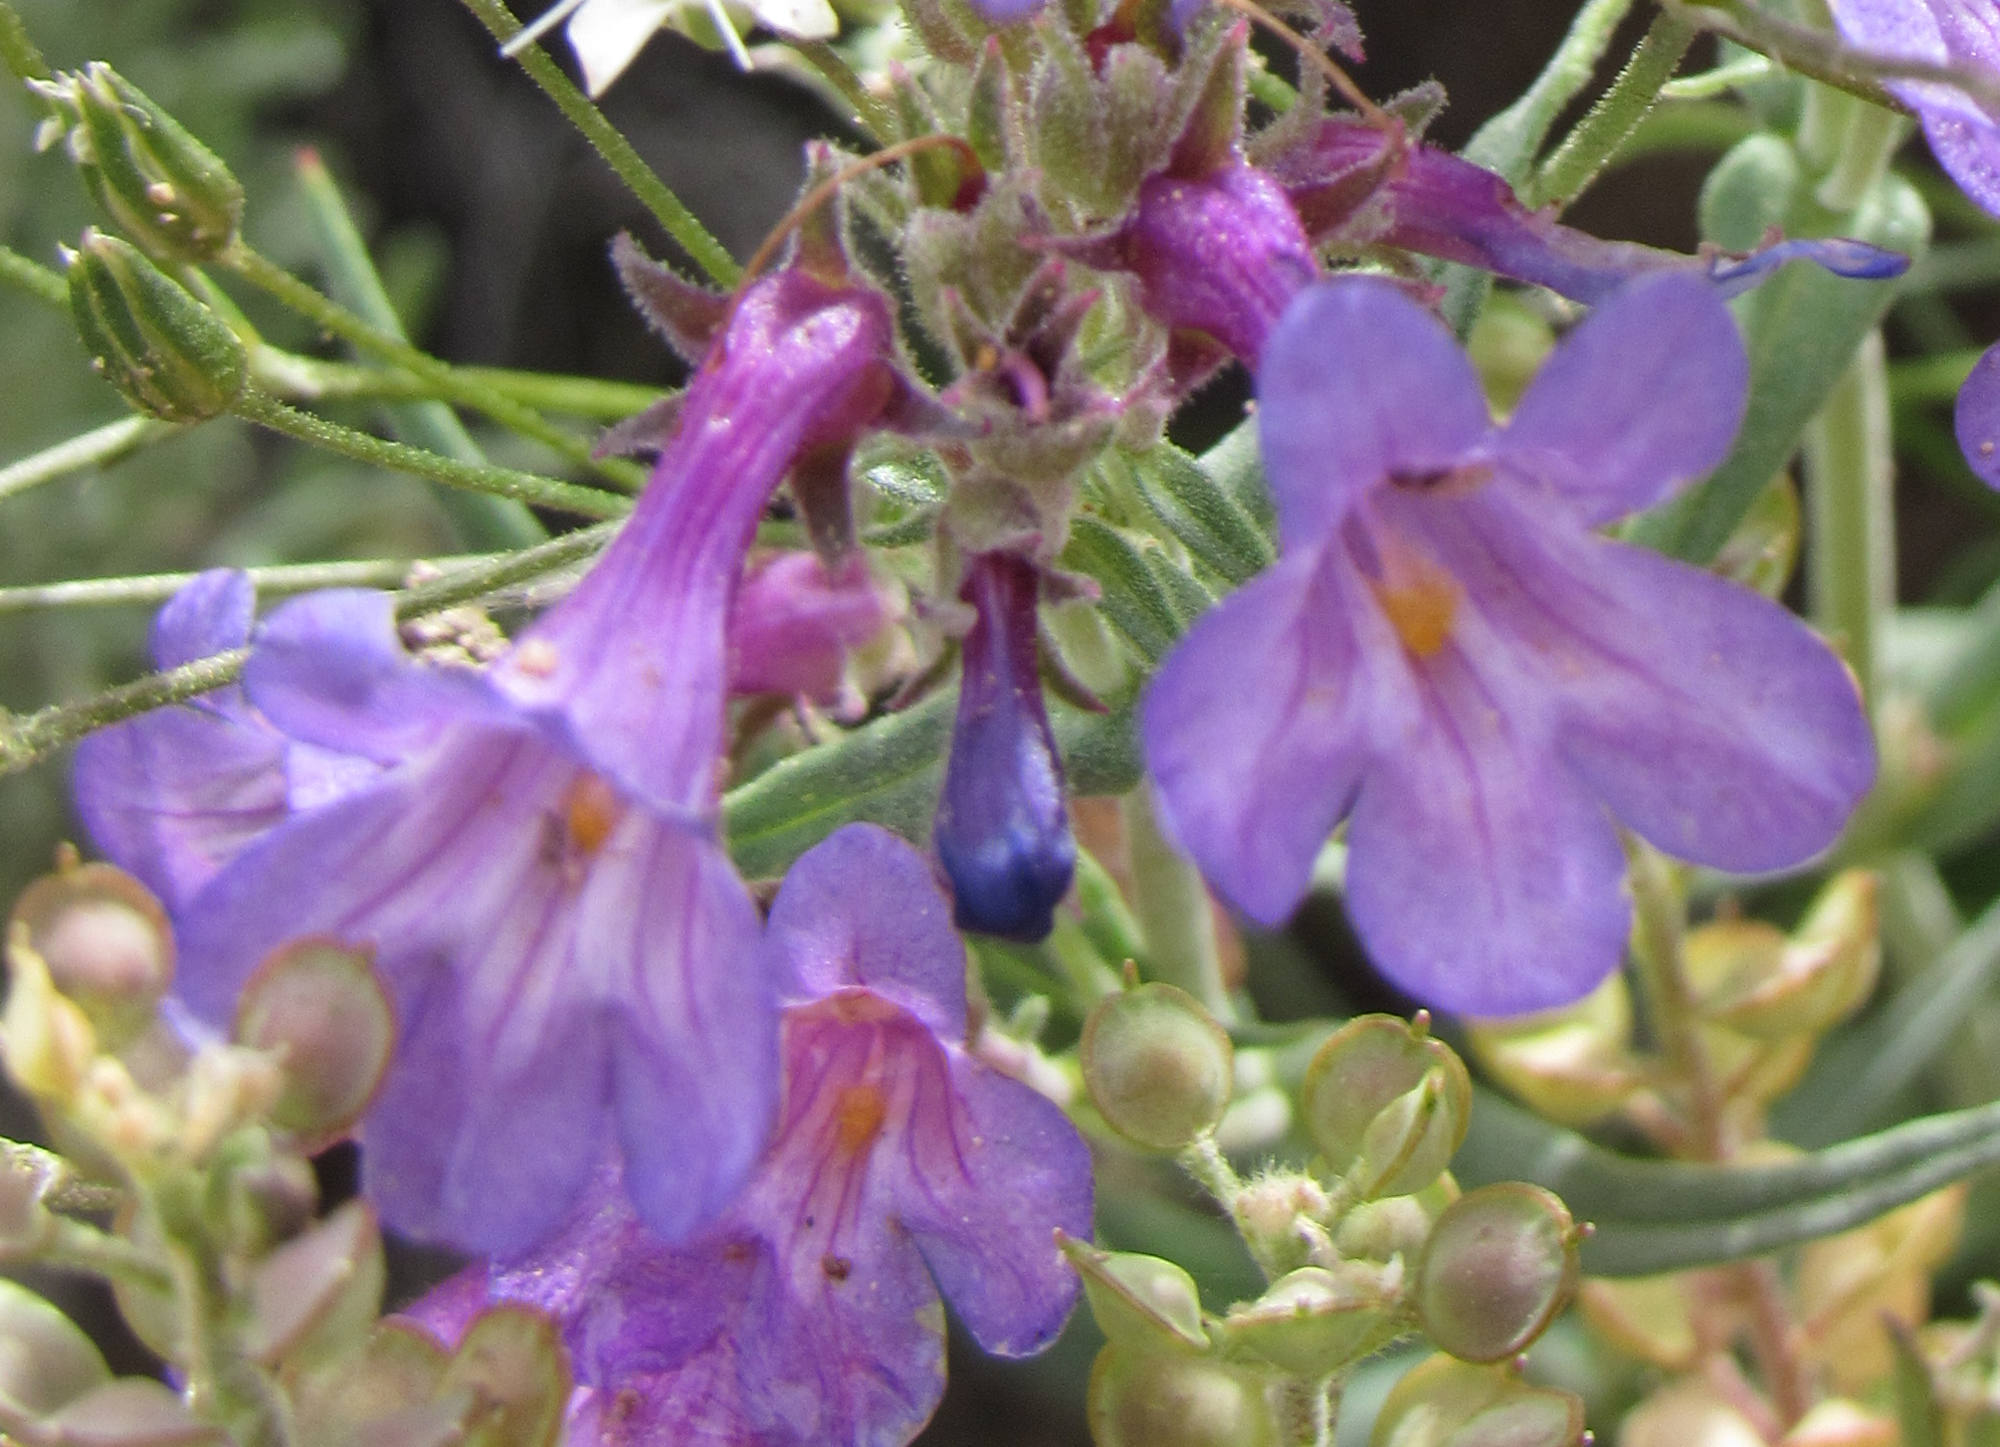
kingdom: Plantae
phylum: Tracheophyta
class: Magnoliopsida
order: Lamiales
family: Plantaginaceae
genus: Penstemon
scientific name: Penstemon humilis
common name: Low penstemon
